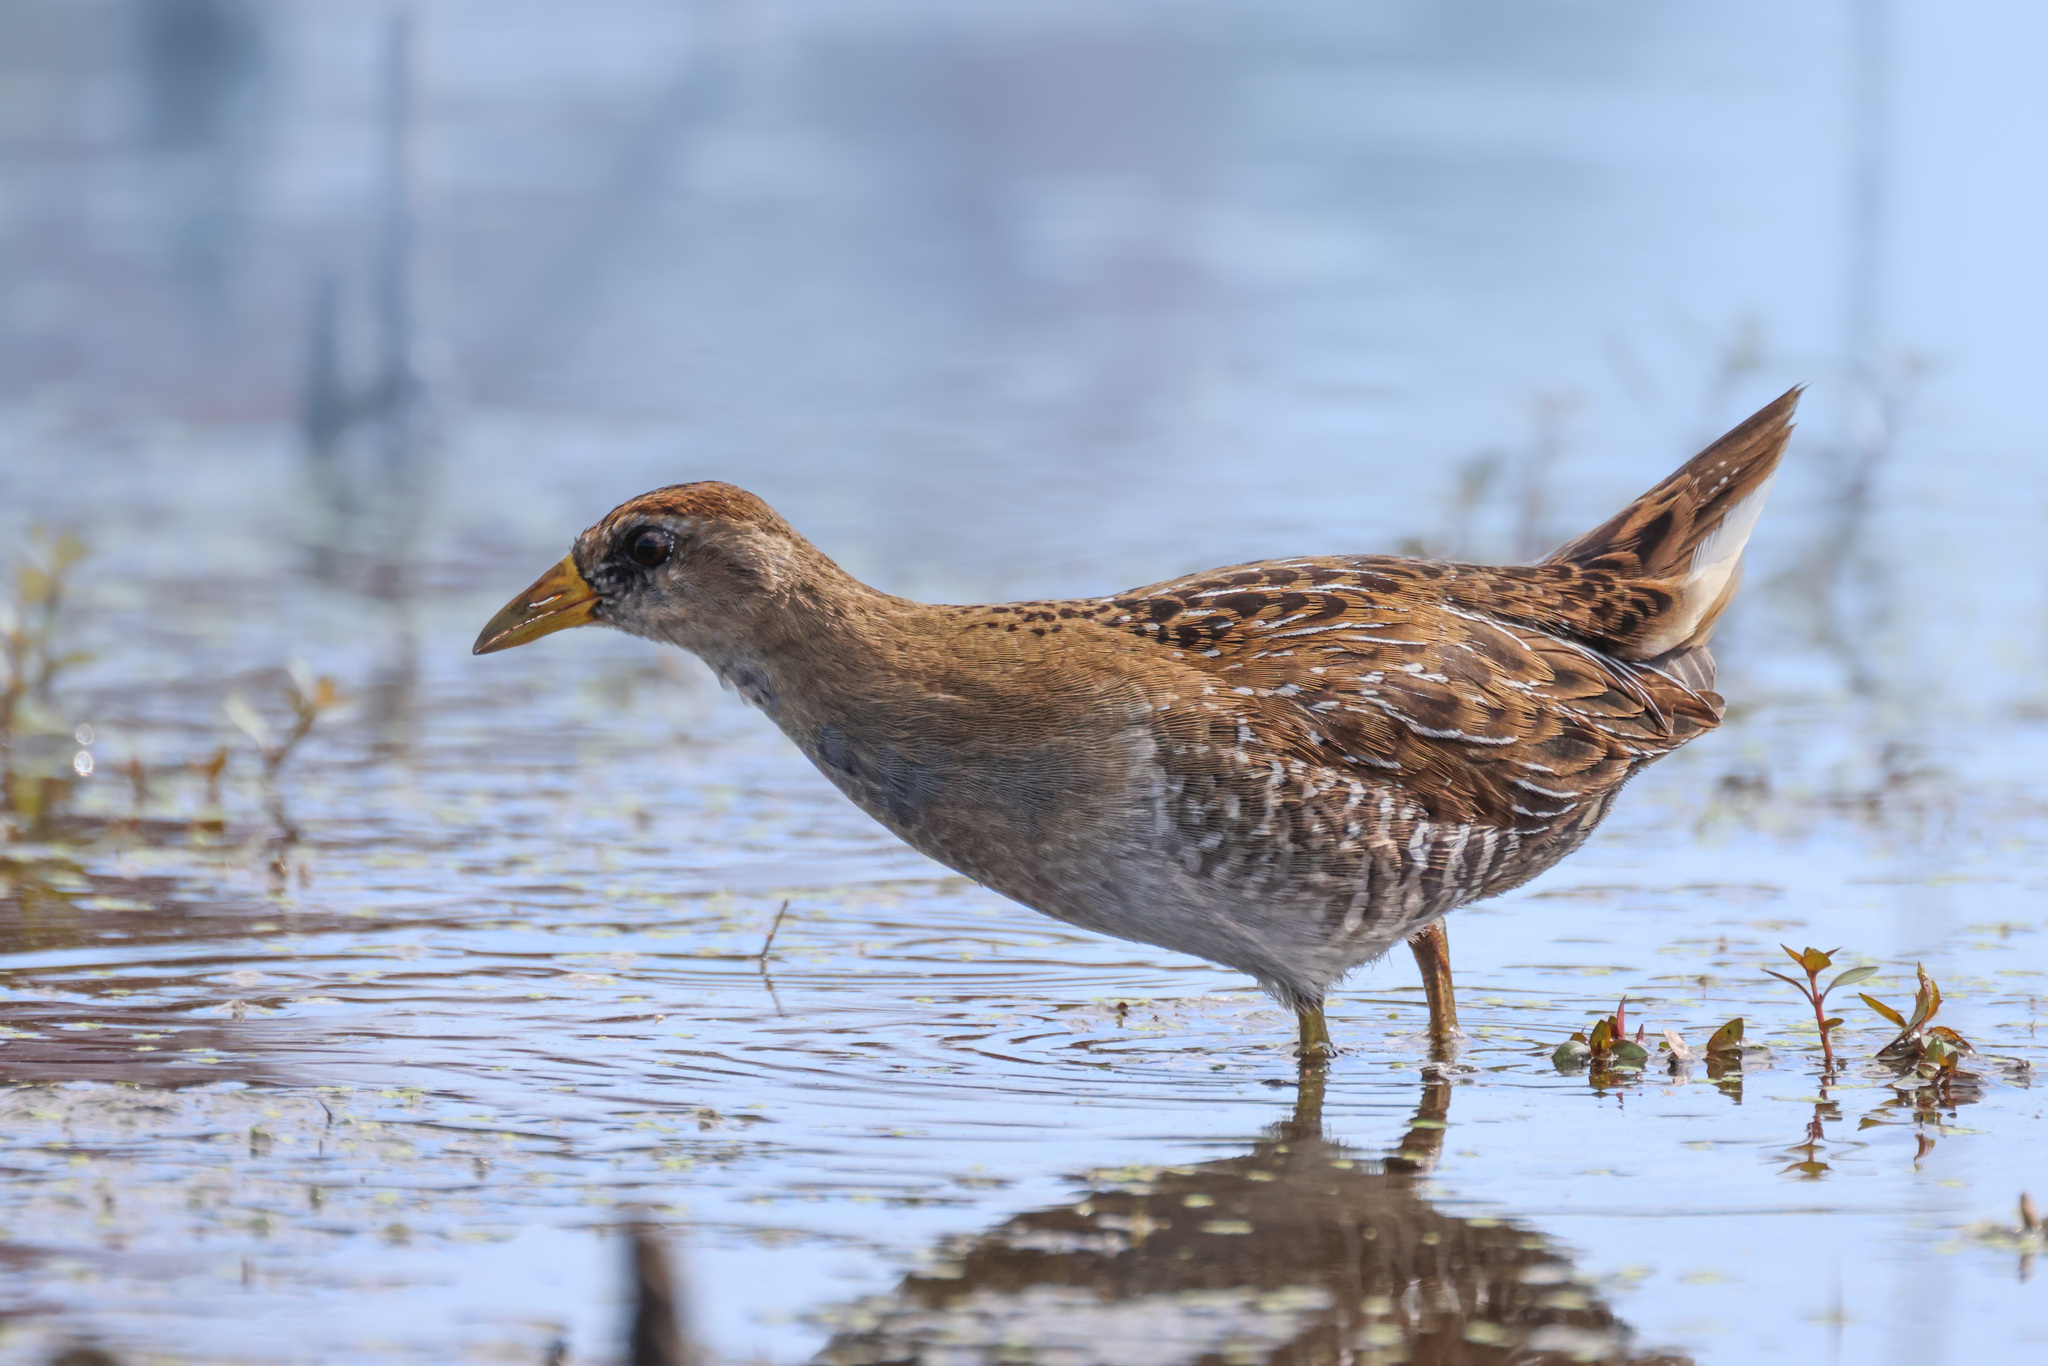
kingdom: Animalia
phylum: Chordata
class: Aves
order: Gruiformes
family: Rallidae
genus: Porzana
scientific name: Porzana carolina
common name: Sora
